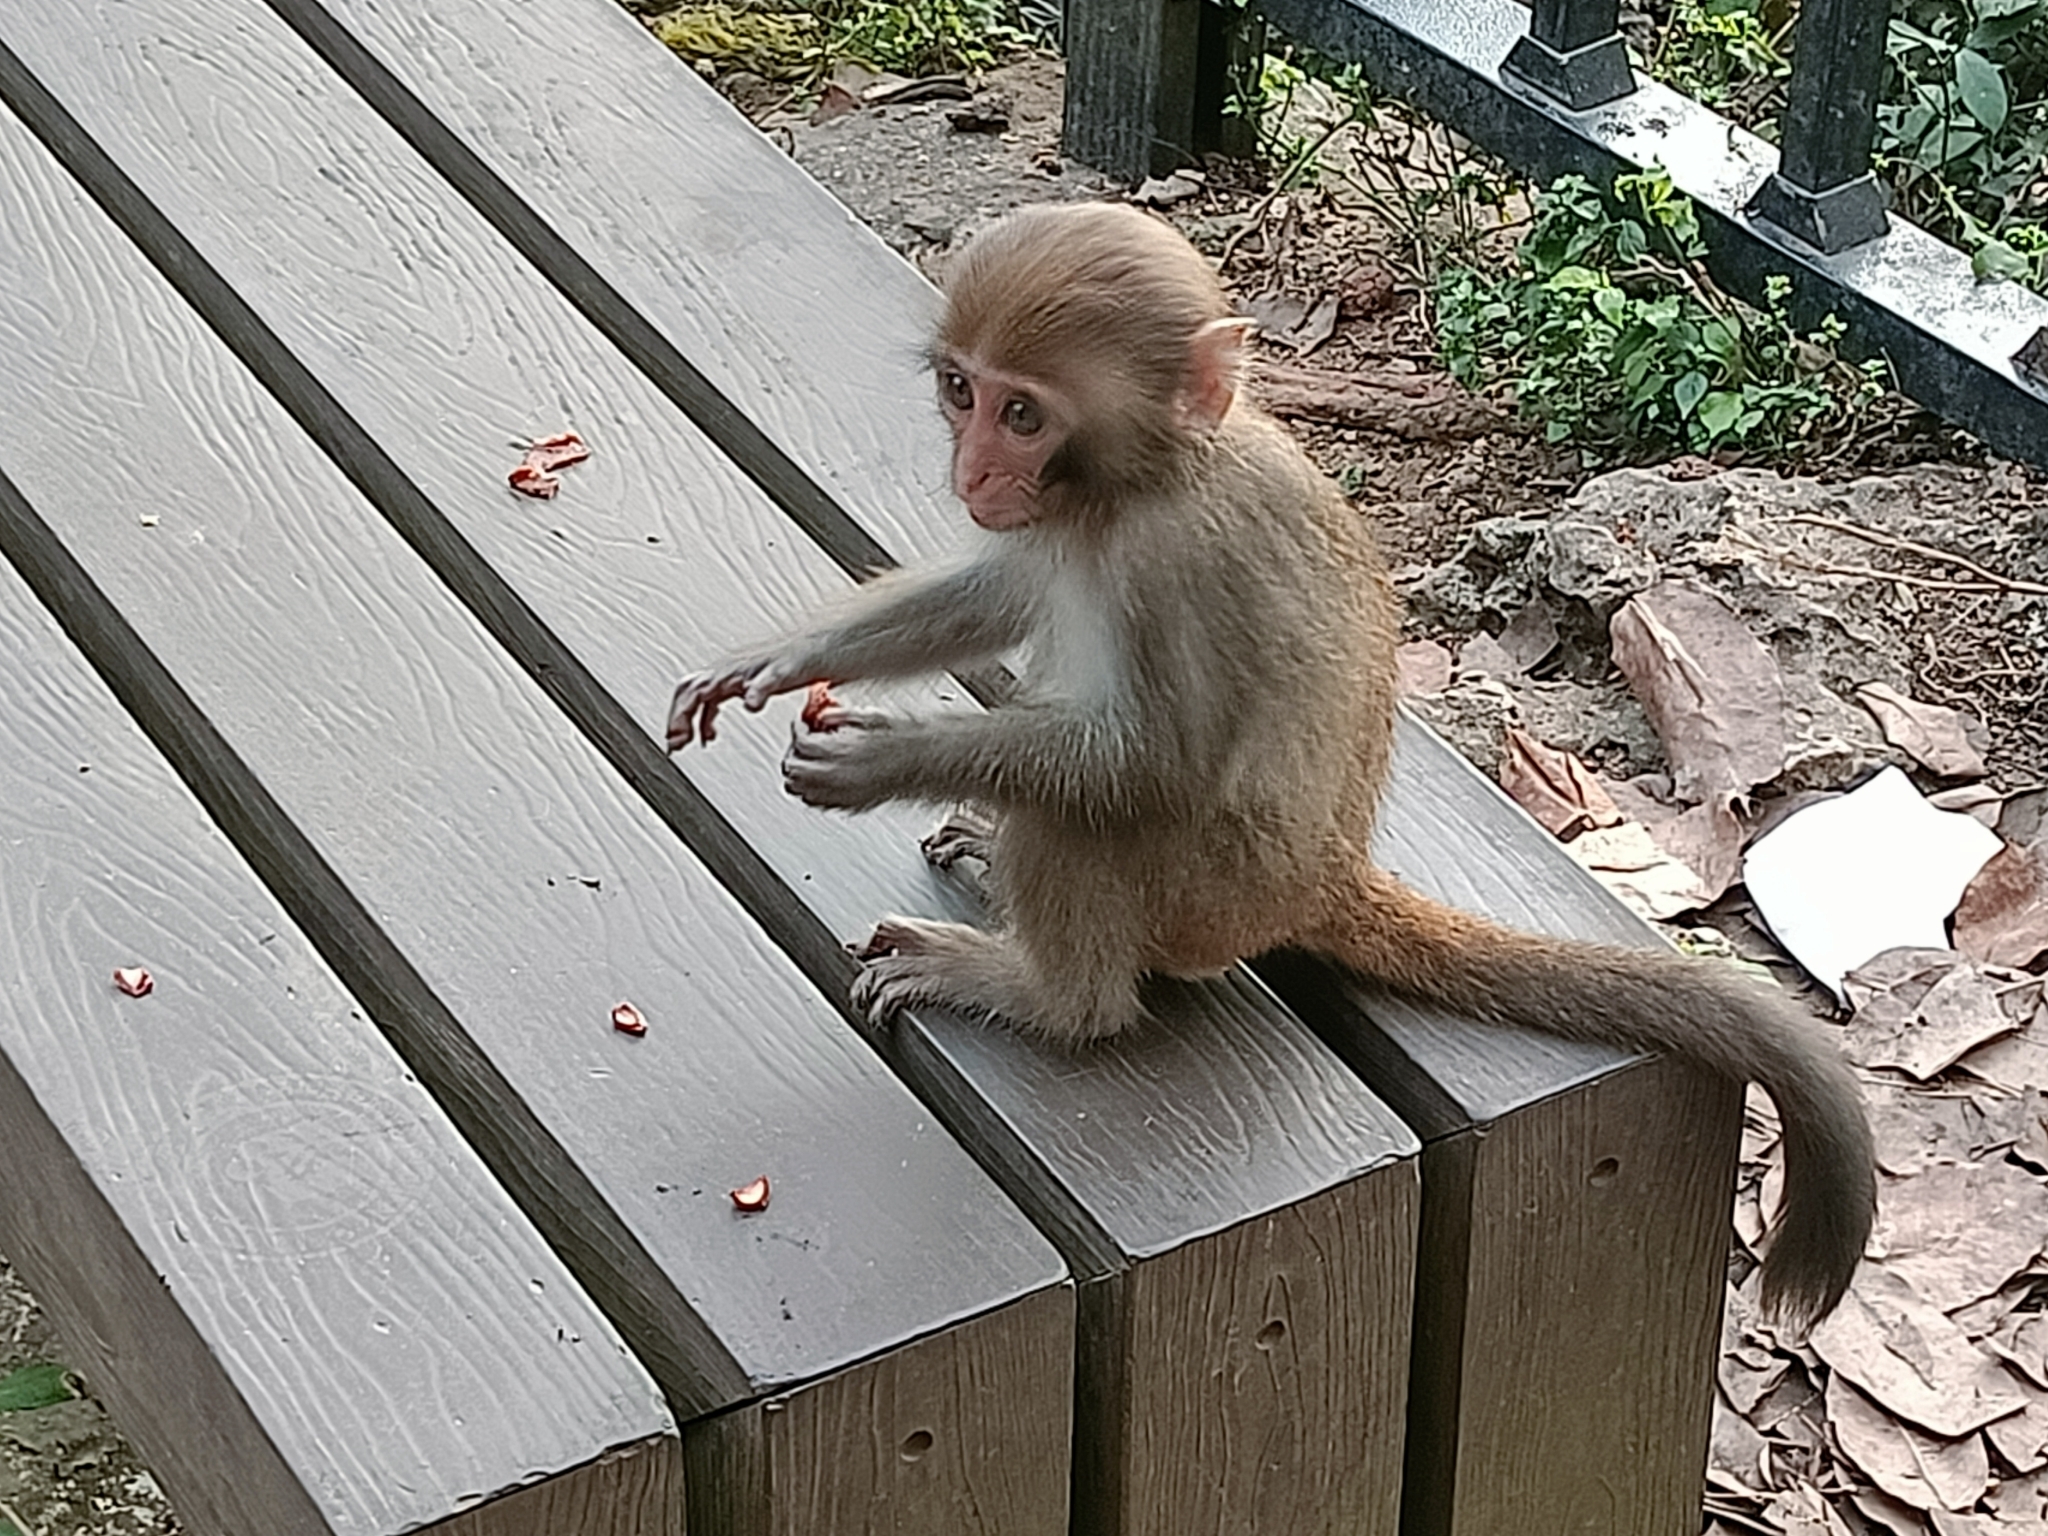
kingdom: Animalia
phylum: Chordata
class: Mammalia
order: Primates
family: Cercopithecidae
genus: Macaca
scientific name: Macaca cyclopis
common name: Formosan rock macaque
